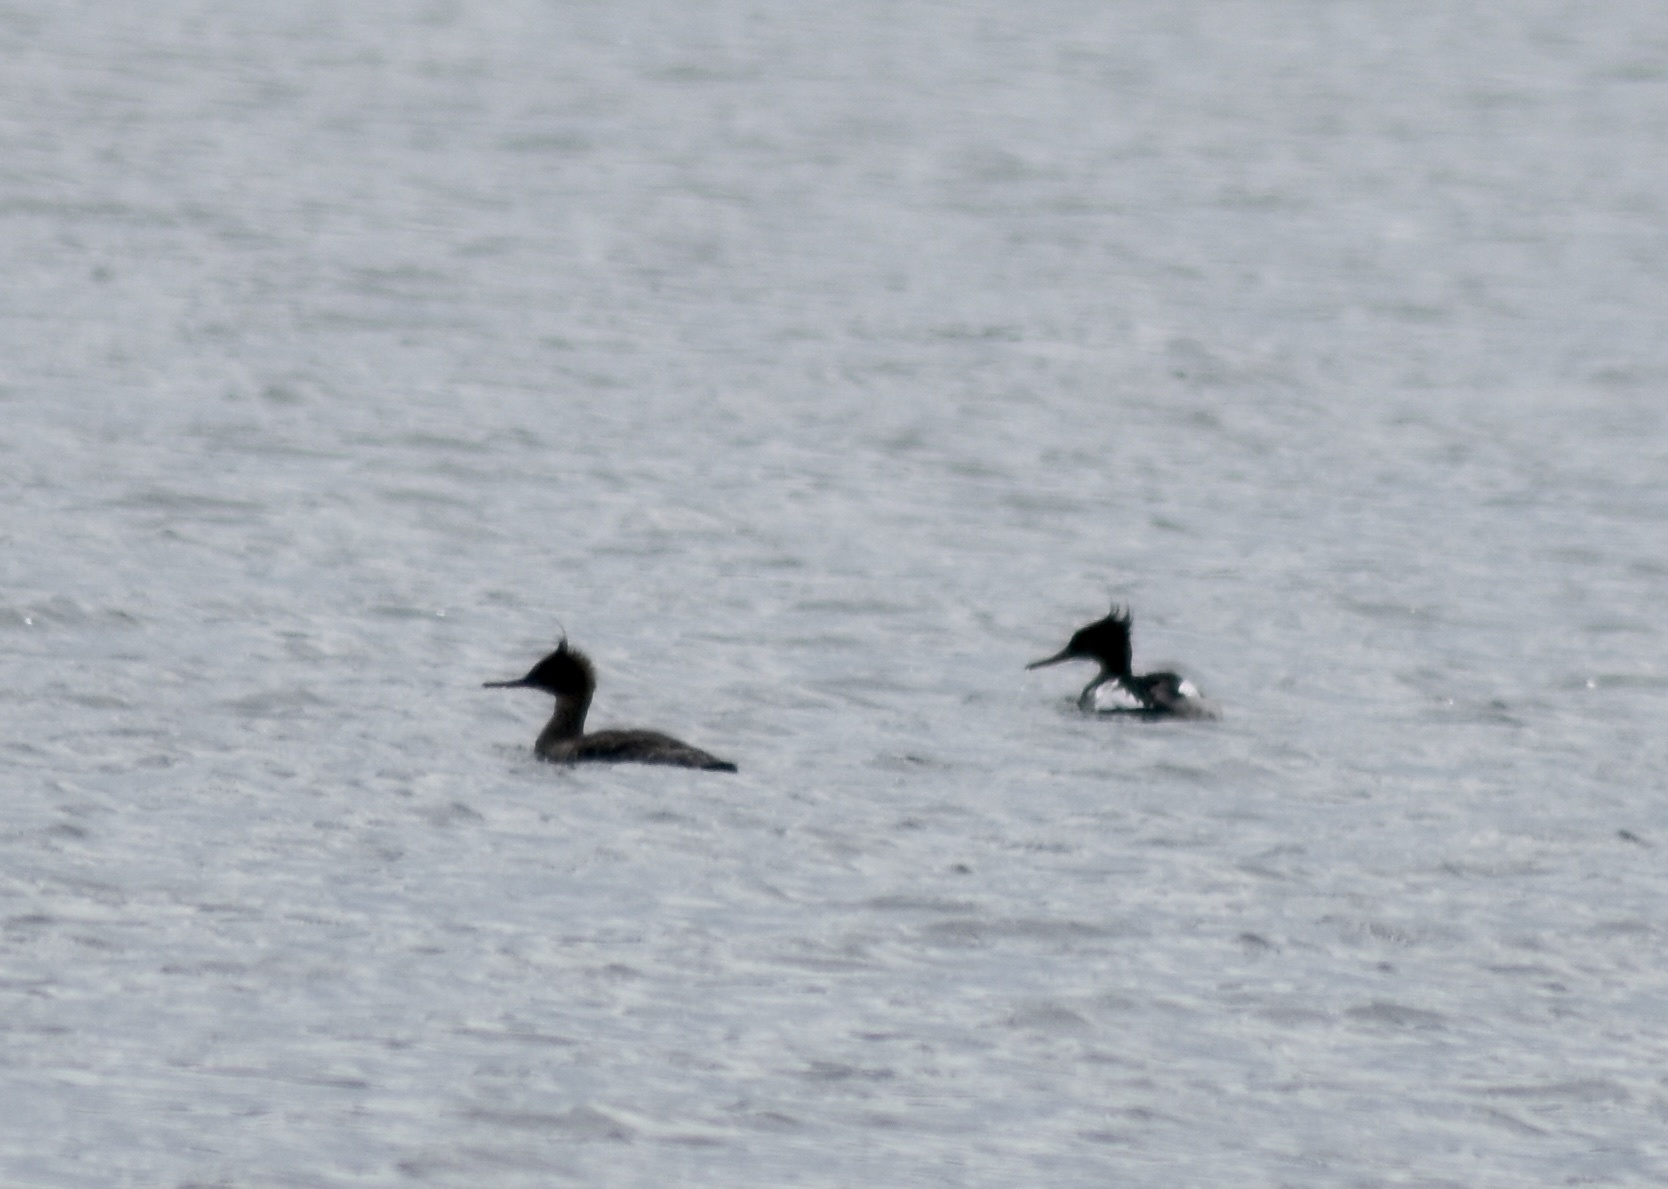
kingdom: Animalia
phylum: Chordata
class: Aves
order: Anseriformes
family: Anatidae
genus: Mergus
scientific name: Mergus serrator
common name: Red-breasted merganser
